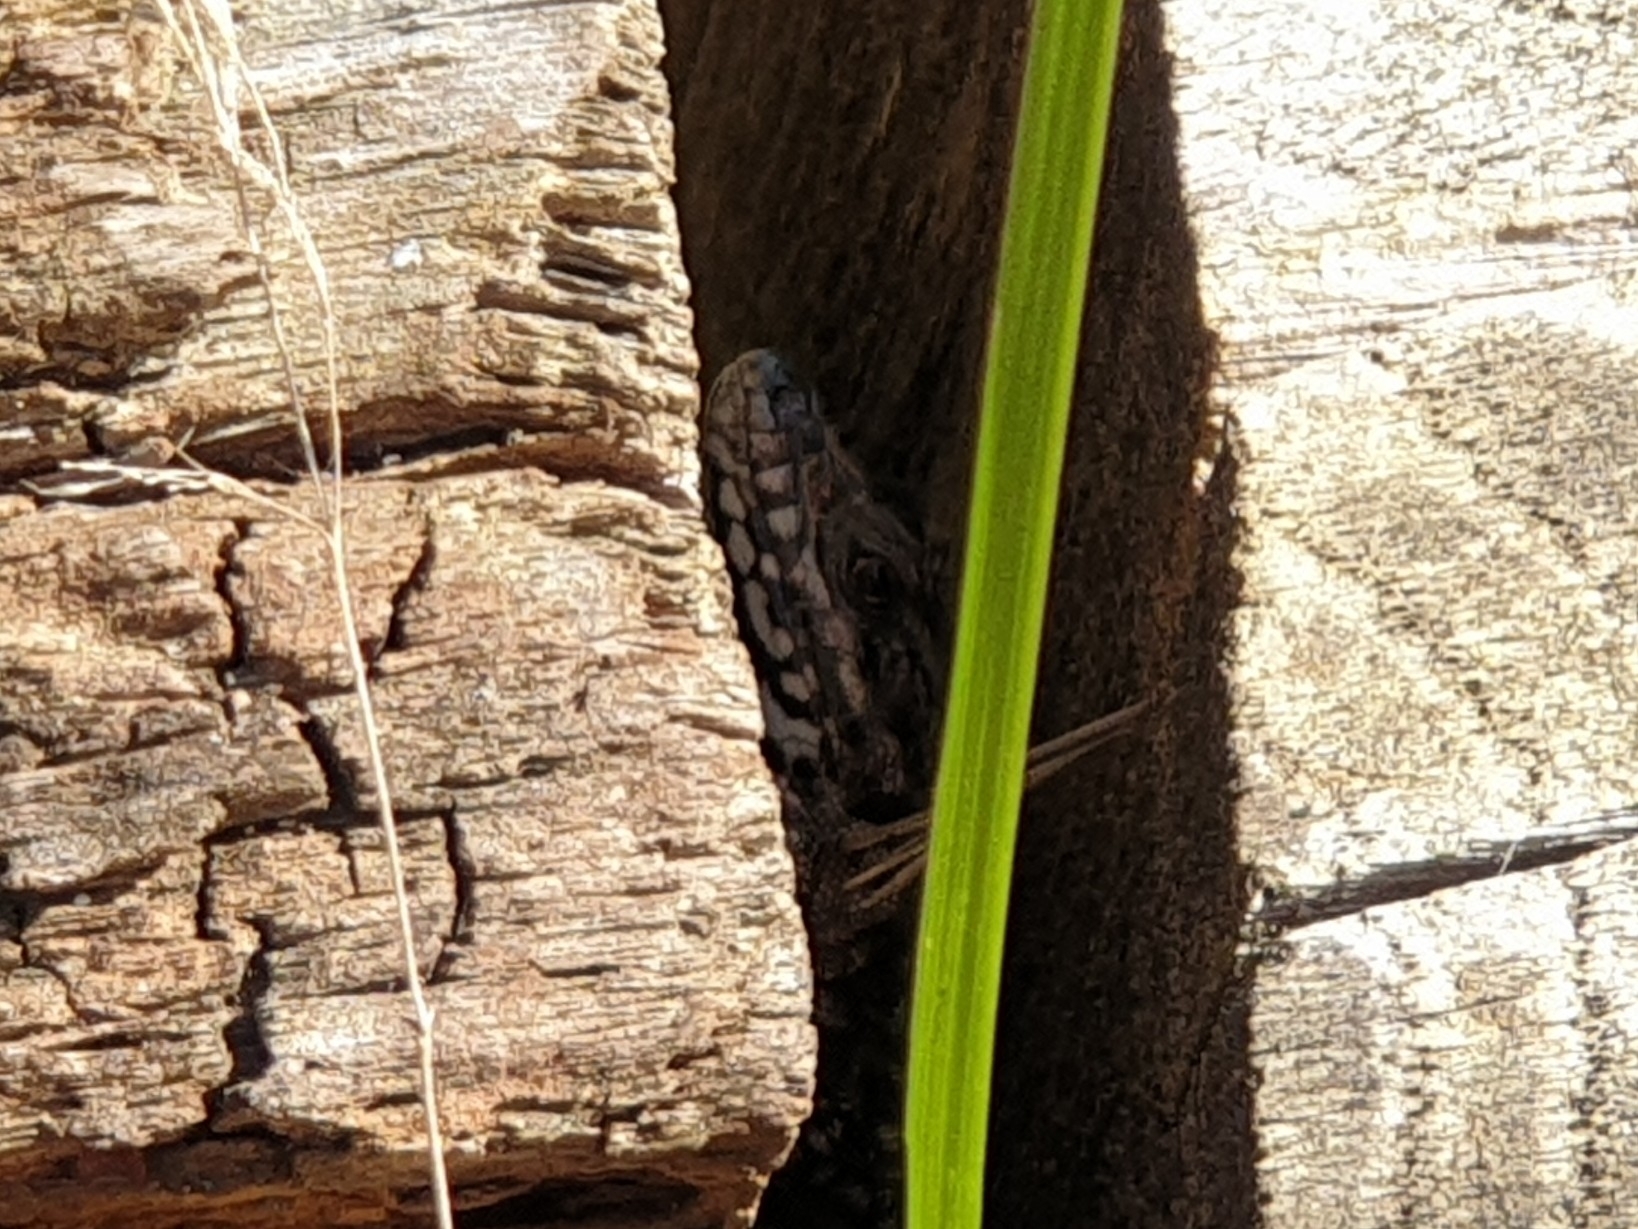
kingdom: Animalia
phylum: Chordata
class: Squamata
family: Lacertidae
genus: Podarcis
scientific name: Podarcis muralis
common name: Common wall lizard
